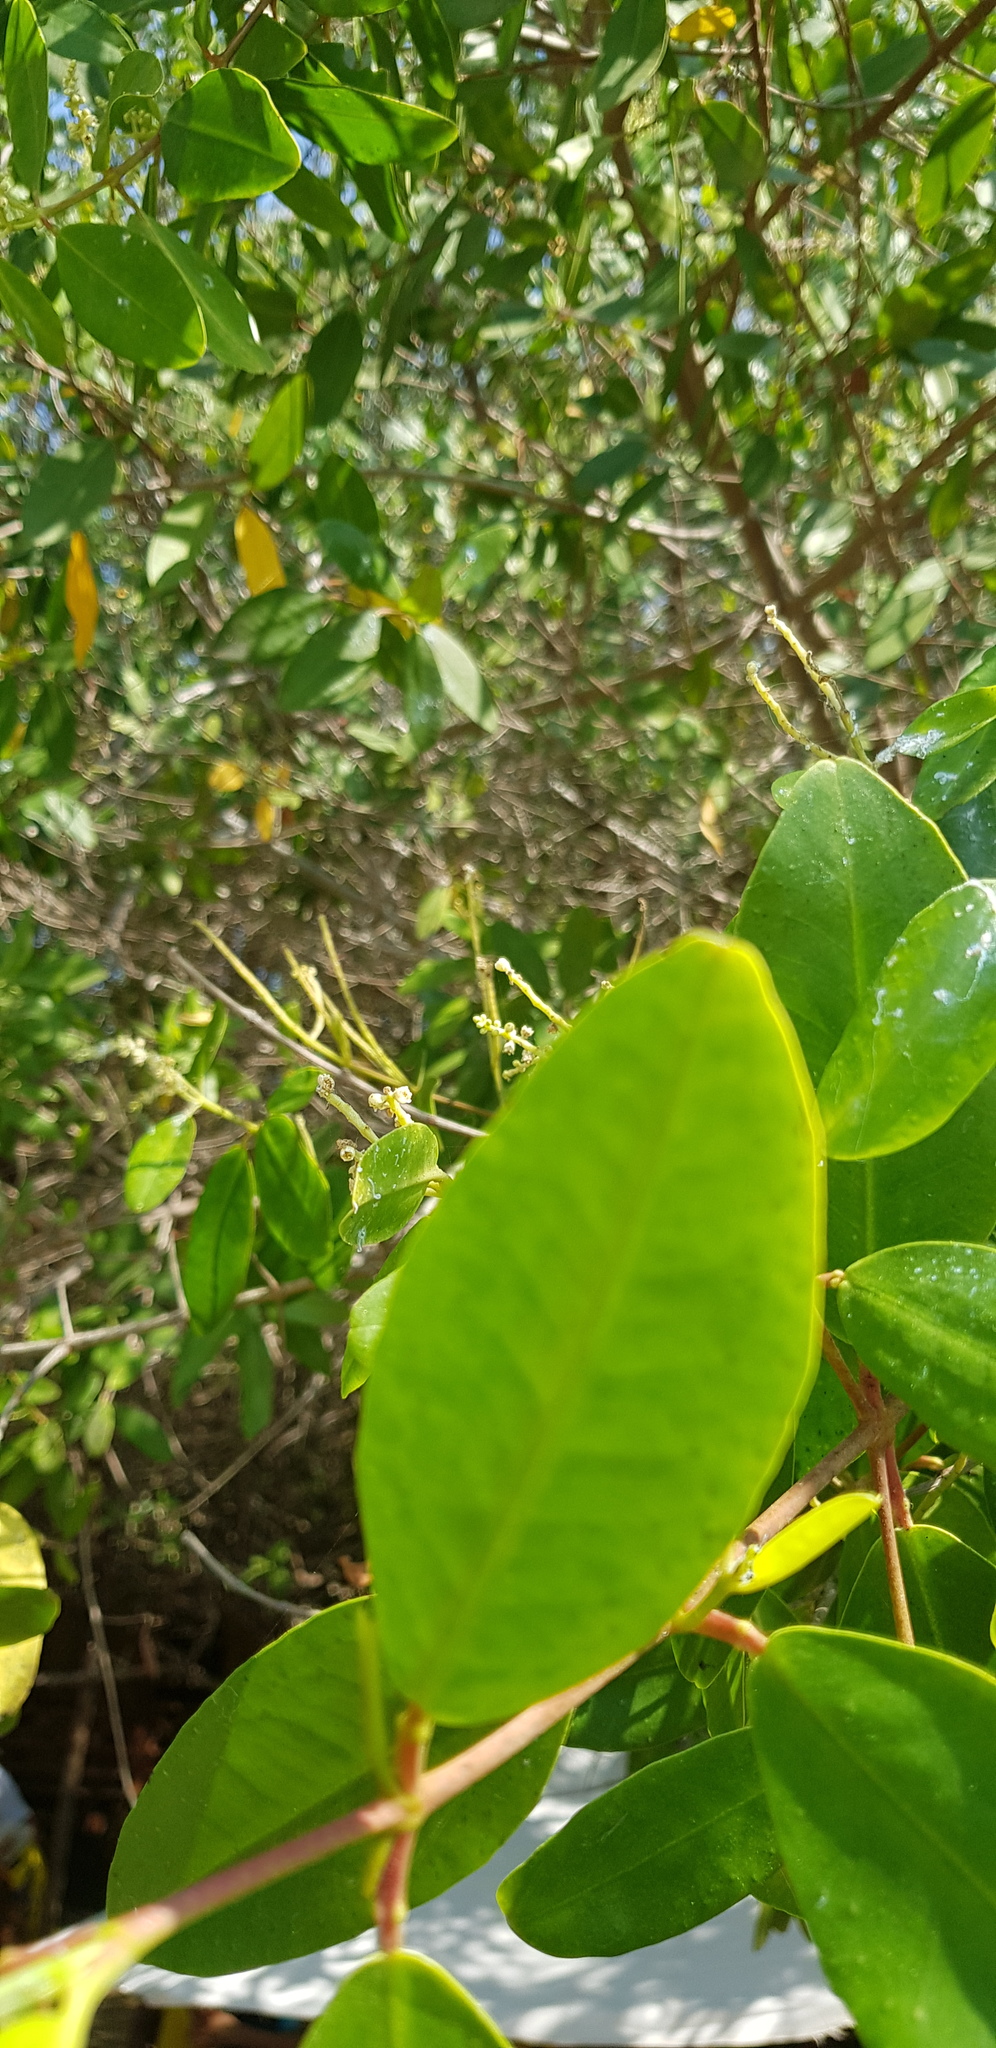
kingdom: Plantae
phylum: Tracheophyta
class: Magnoliopsida
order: Myrtales
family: Combretaceae
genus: Laguncularia
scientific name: Laguncularia racemosa
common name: White mangrove
